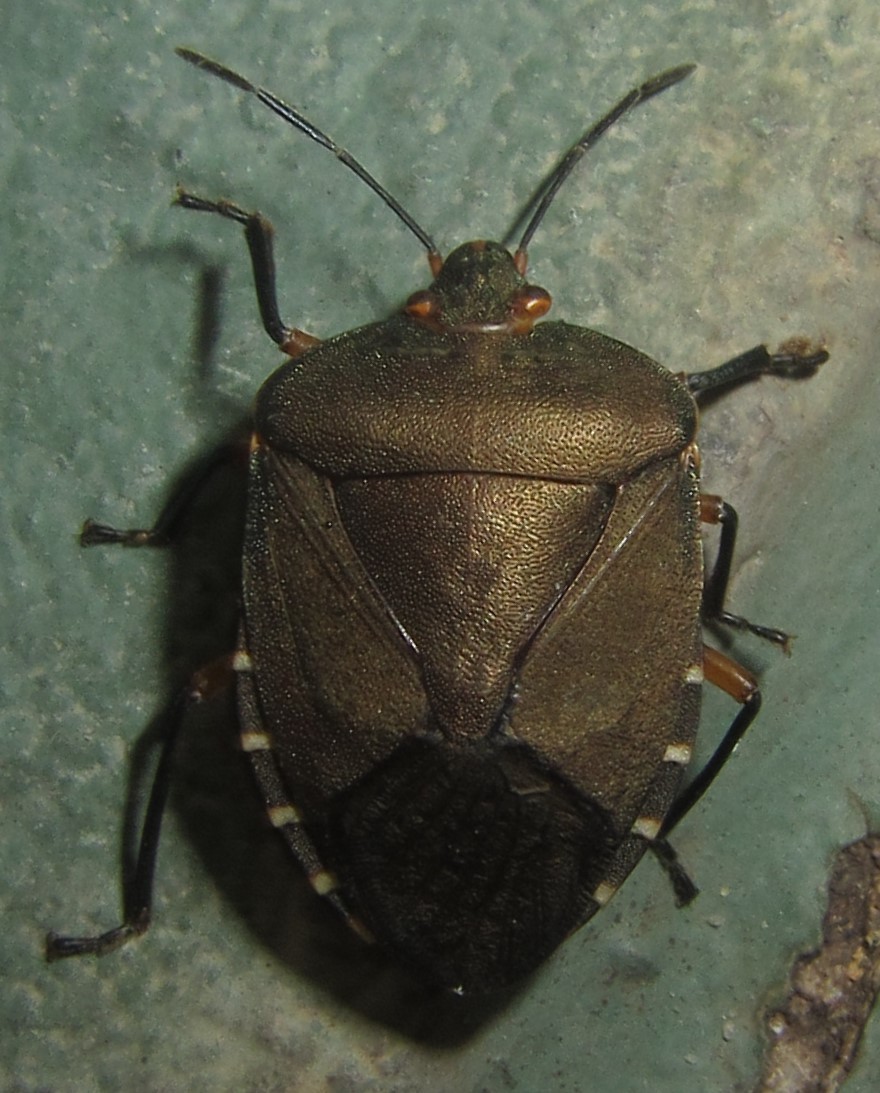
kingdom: Animalia
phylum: Arthropoda
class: Insecta
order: Hemiptera
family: Pentatomidae
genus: Caura
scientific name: Caura rufiventris
